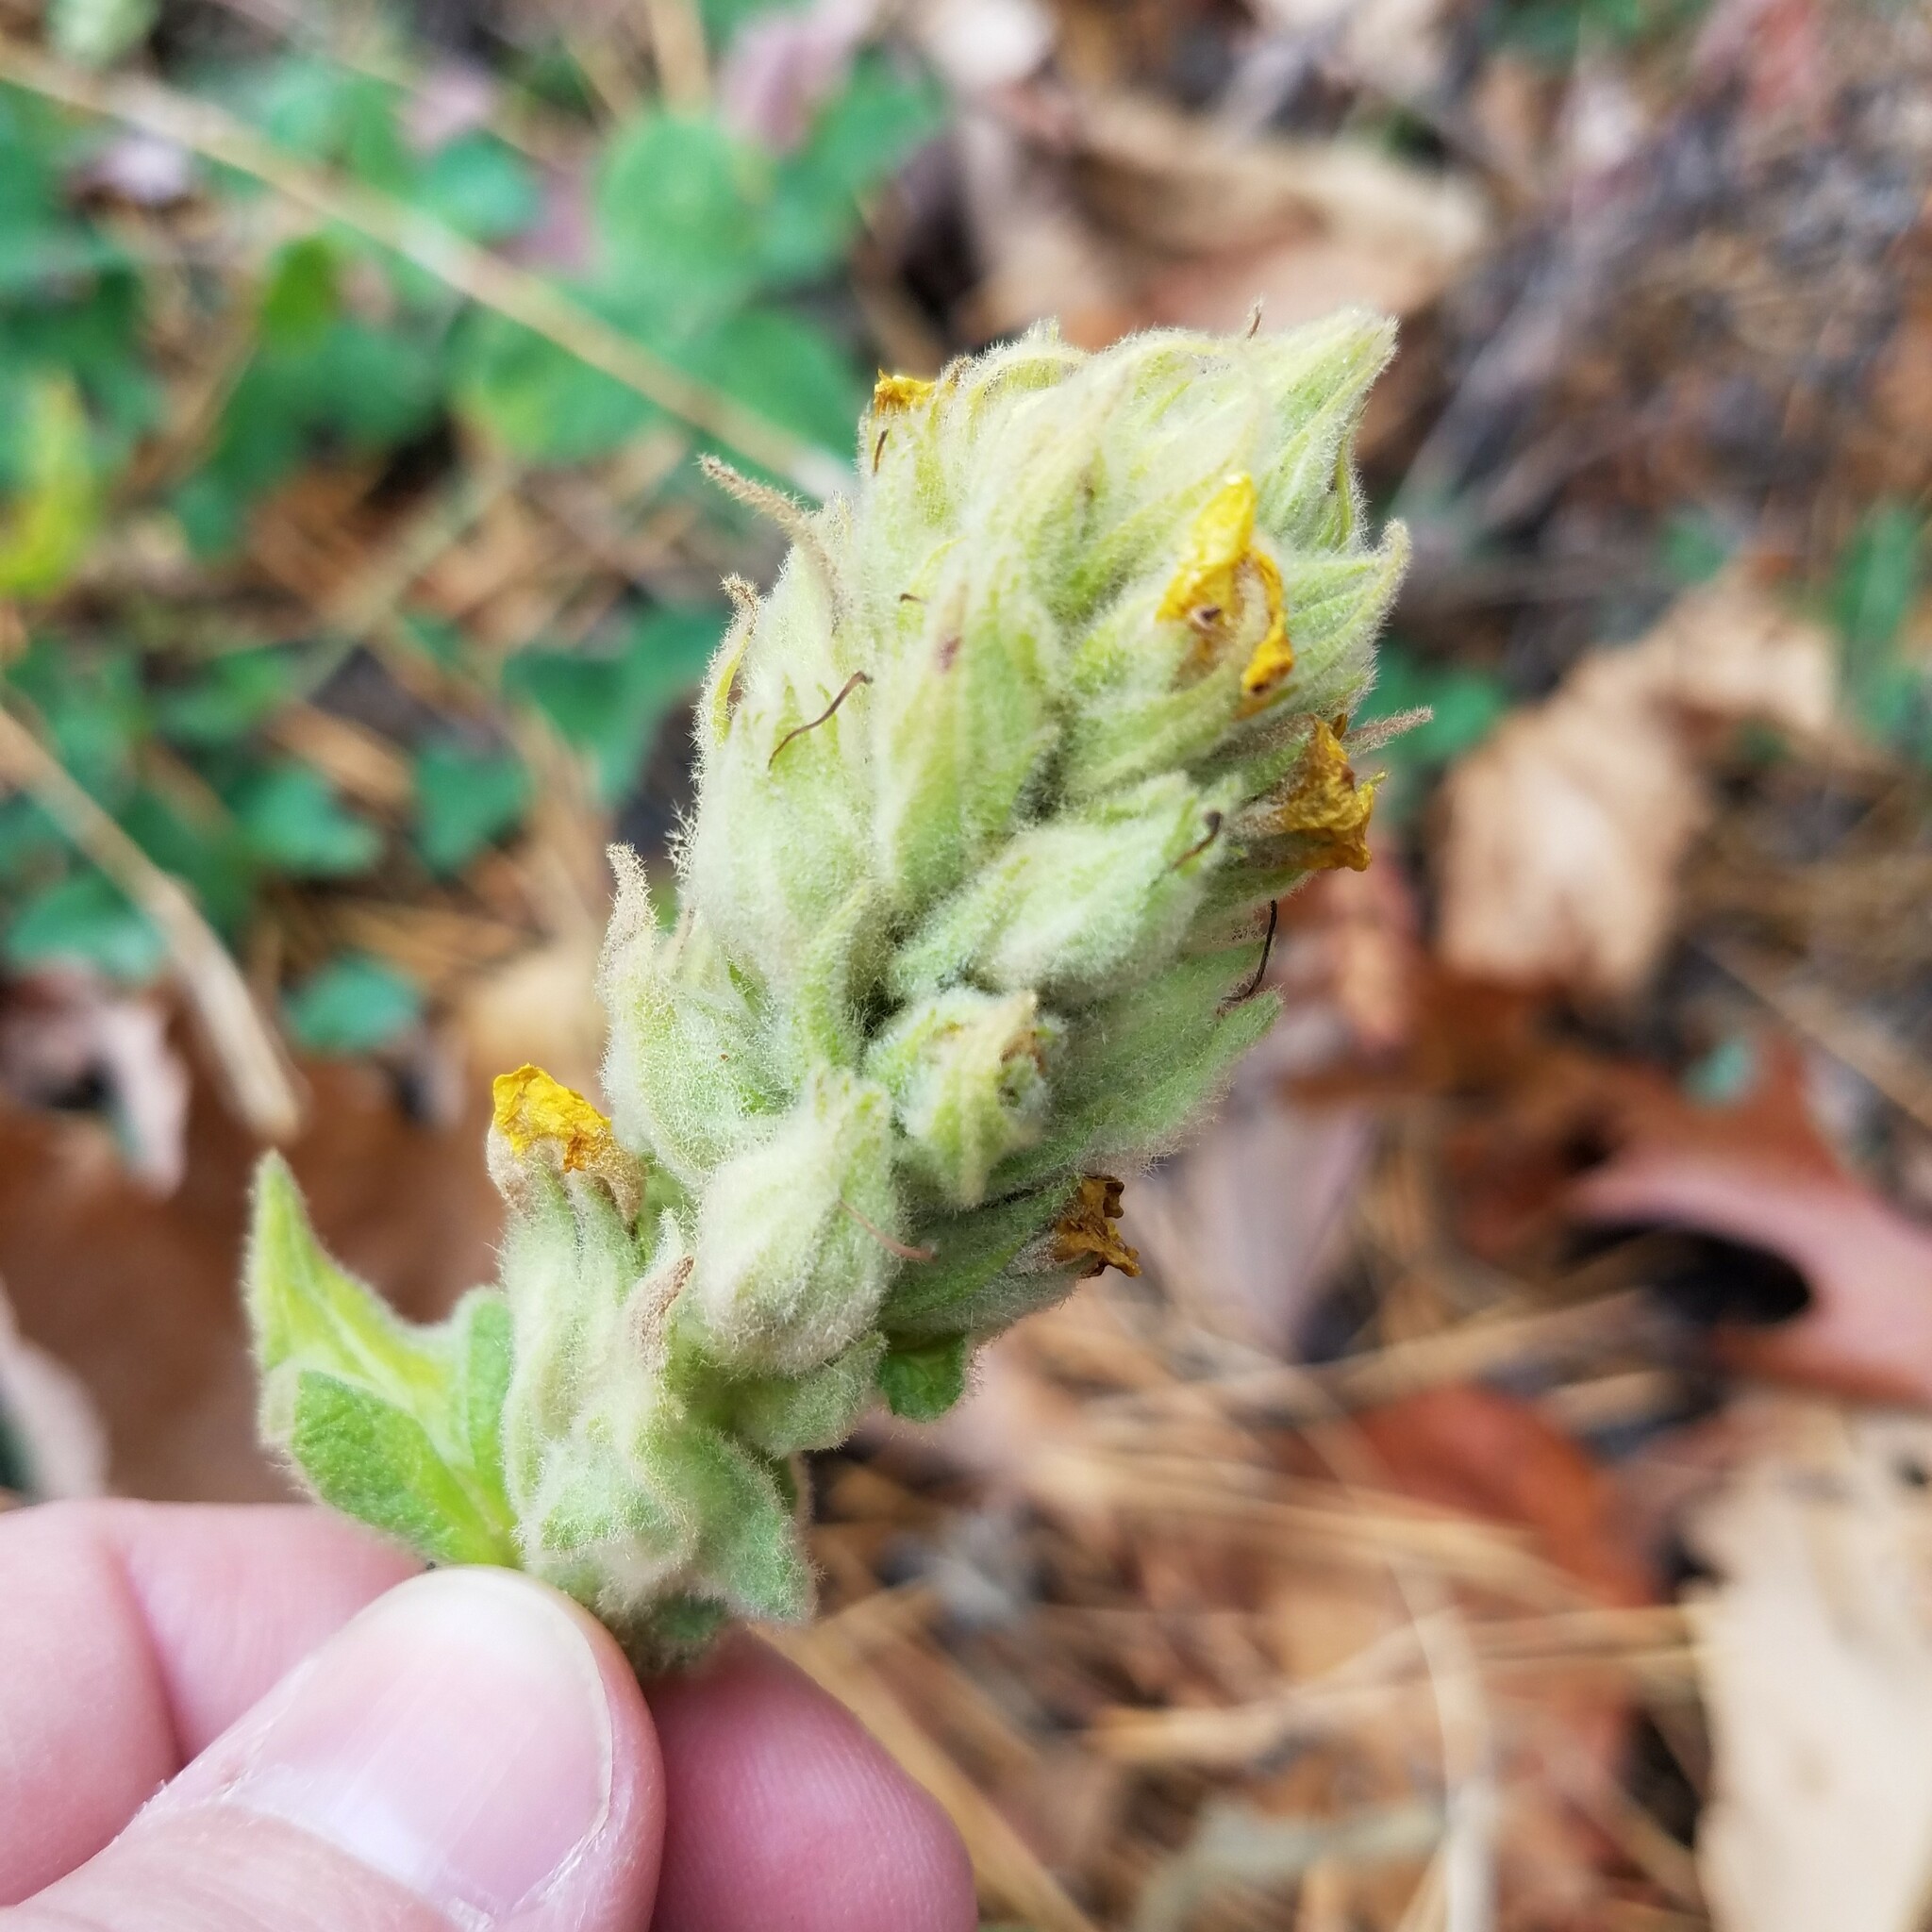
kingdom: Plantae
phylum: Tracheophyta
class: Magnoliopsida
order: Lamiales
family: Scrophulariaceae
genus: Verbascum
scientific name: Verbascum thapsus
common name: Common mullein
